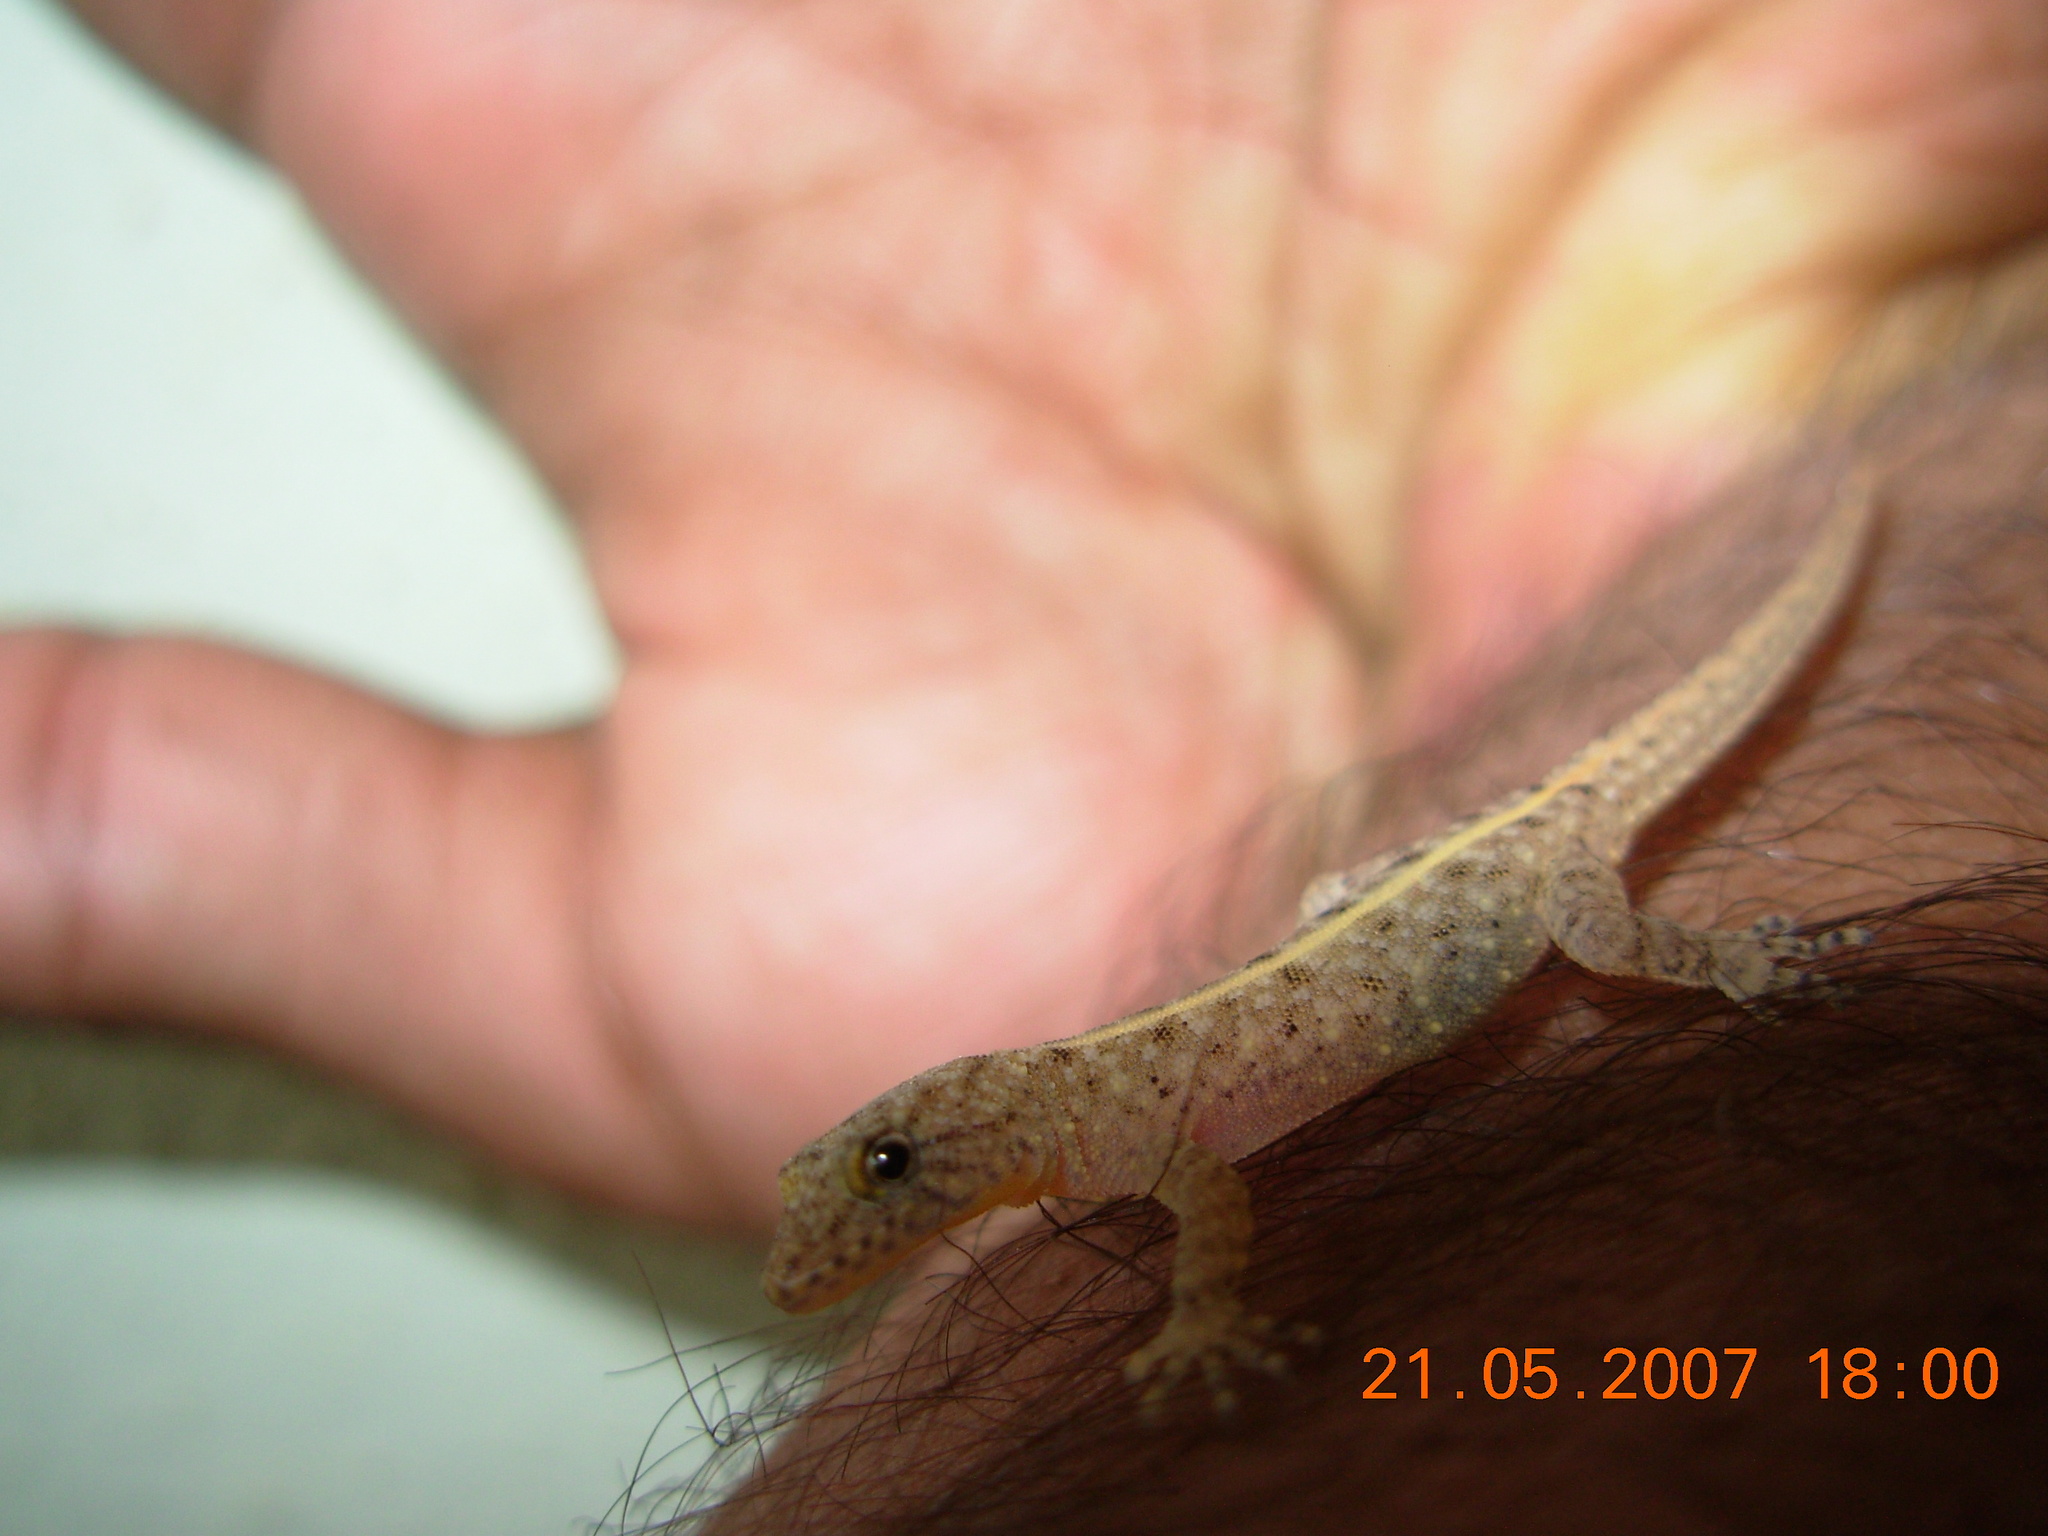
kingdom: Animalia
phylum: Chordata
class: Squamata
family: Gekkonidae
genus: Cnemaspis
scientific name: Cnemaspis mysoriensis
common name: Mysore day gecko
